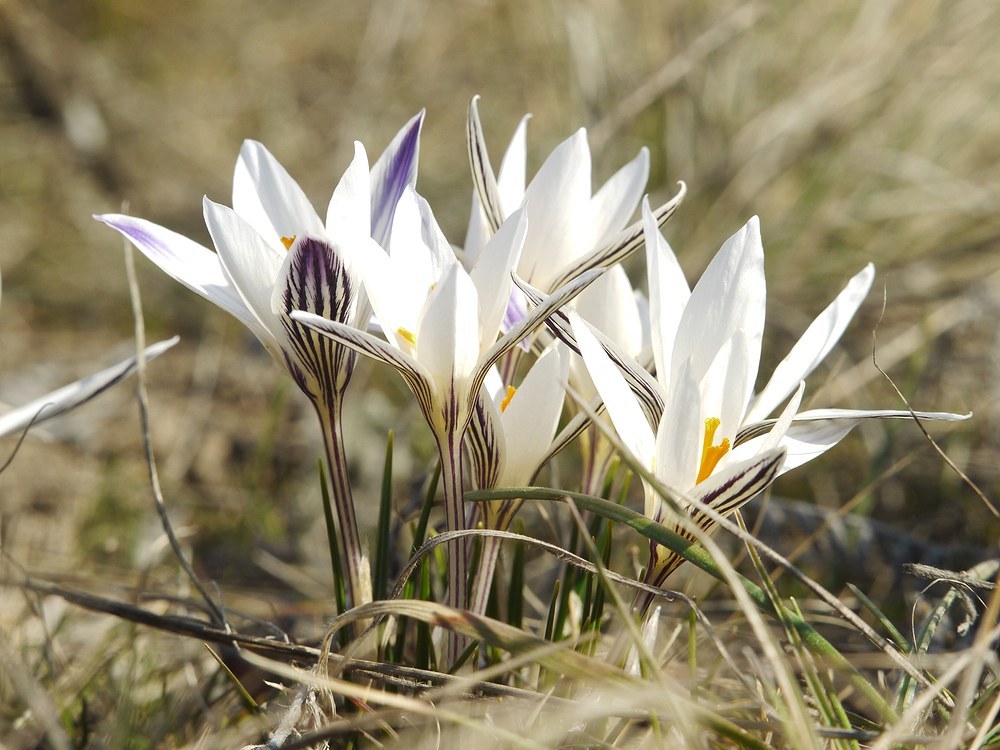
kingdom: Plantae
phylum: Tracheophyta
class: Liliopsida
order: Asparagales
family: Iridaceae
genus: Crocus
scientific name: Crocus reticulatus
